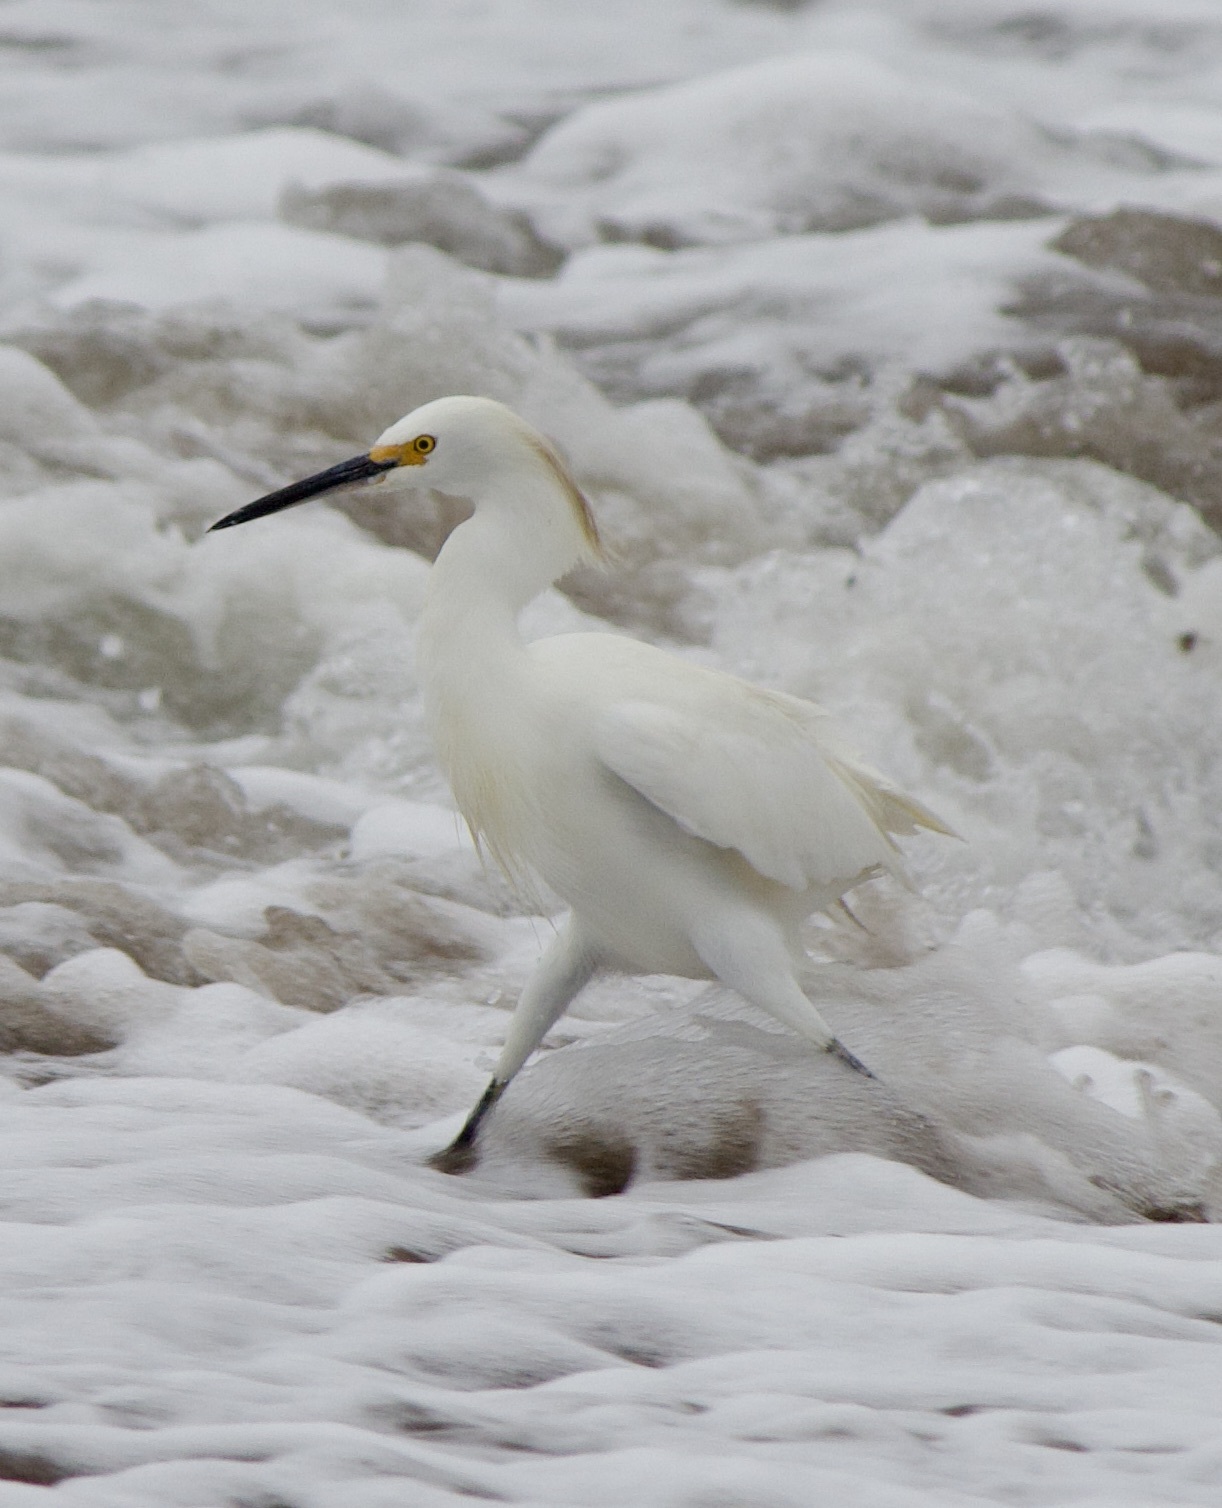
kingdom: Animalia
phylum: Chordata
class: Aves
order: Pelecaniformes
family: Ardeidae
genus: Egretta
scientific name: Egretta thula
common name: Snowy egret
